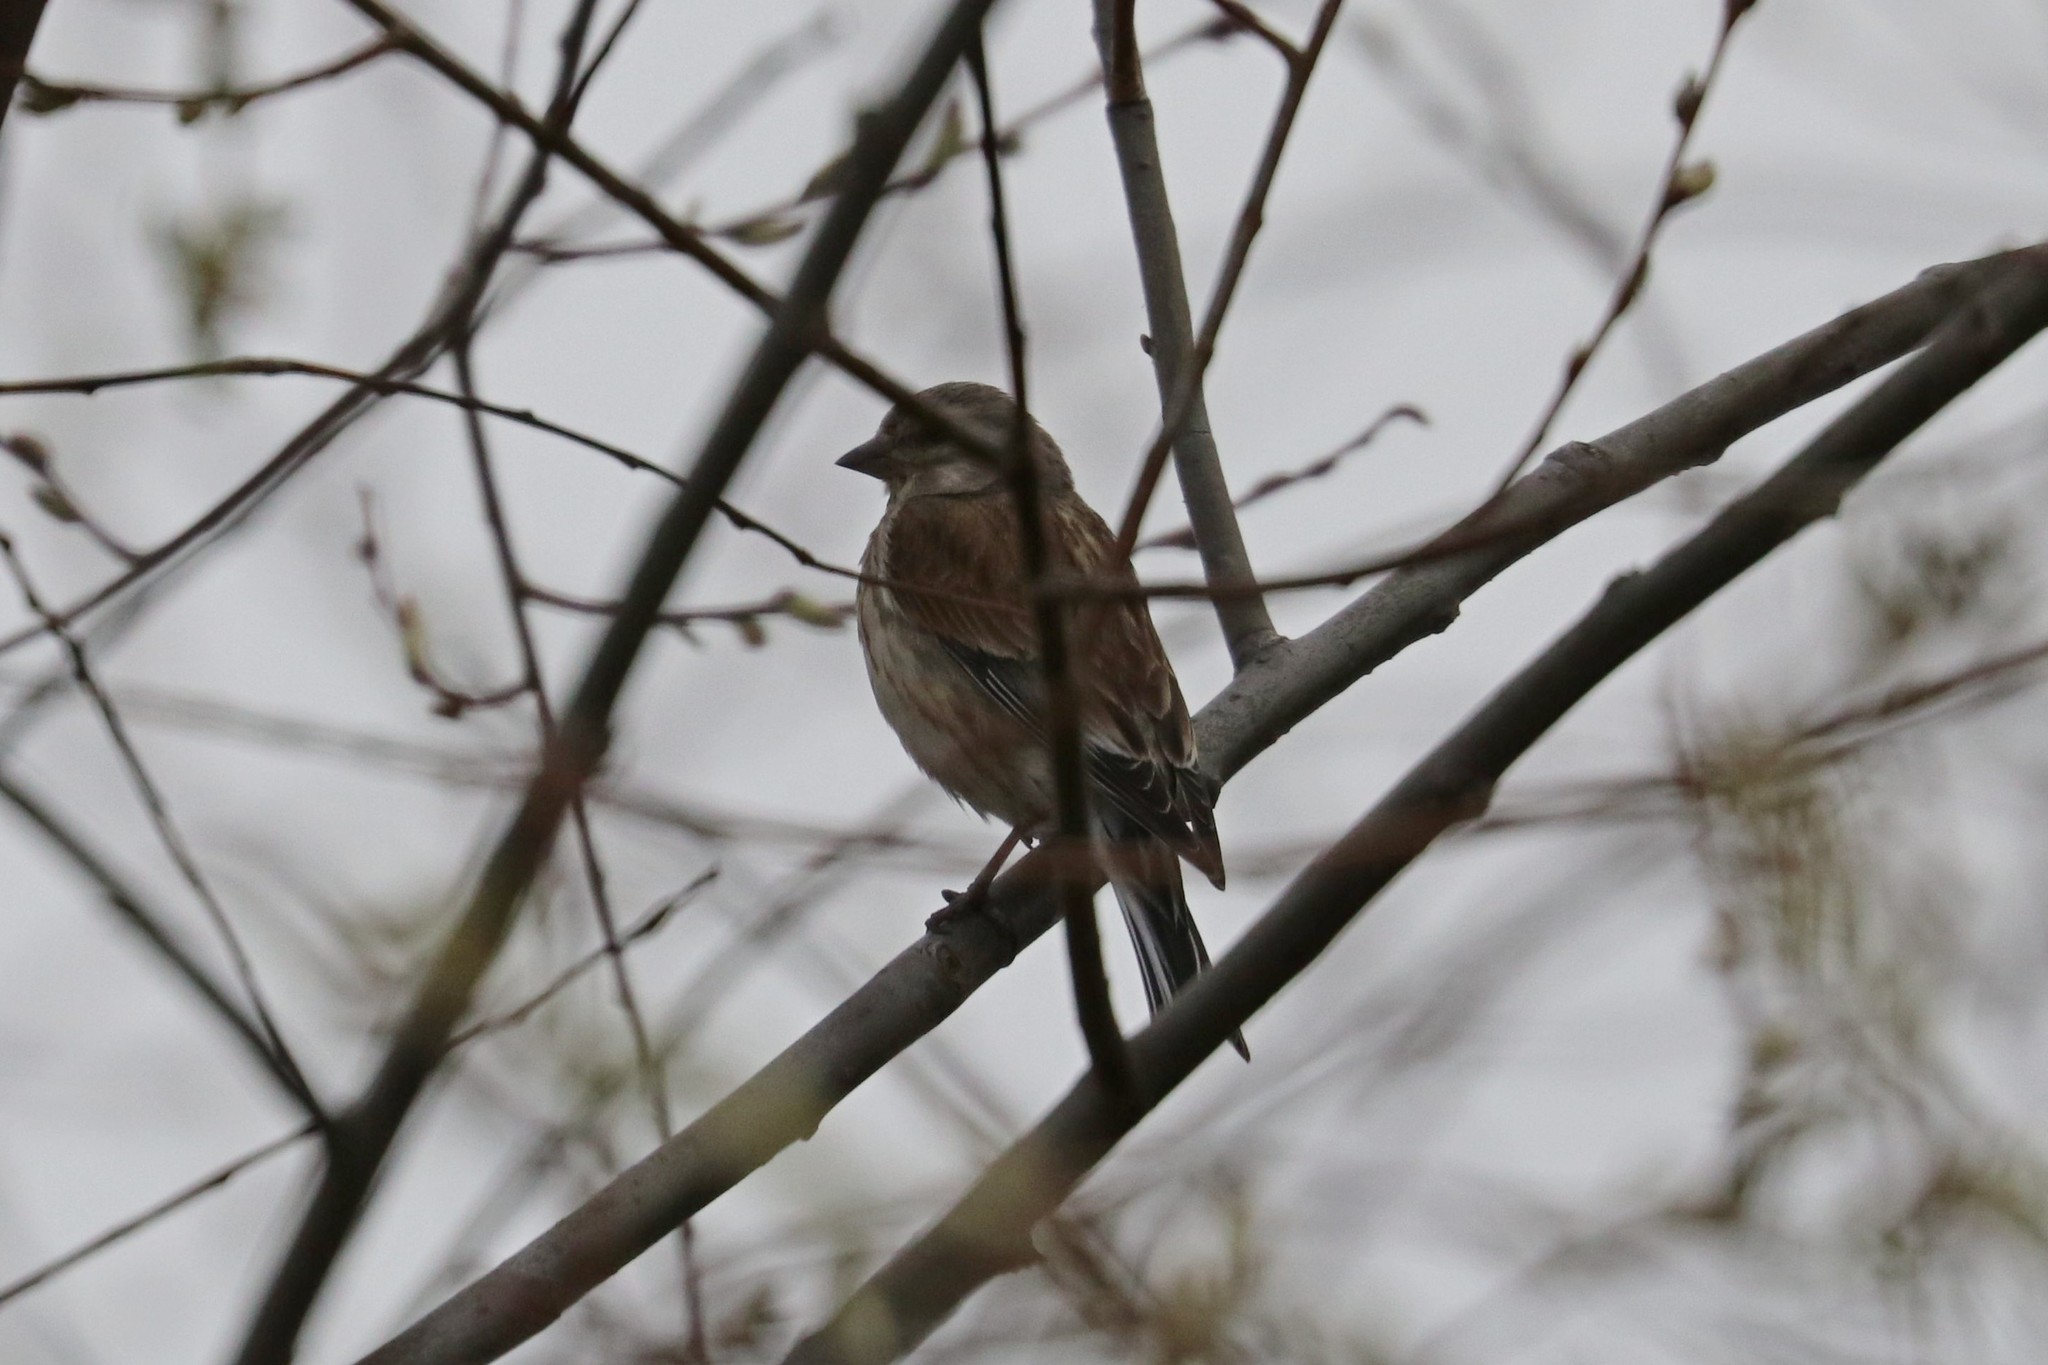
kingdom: Animalia
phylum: Chordata
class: Aves
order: Passeriformes
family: Fringillidae
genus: Linaria
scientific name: Linaria cannabina
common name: Common linnet
